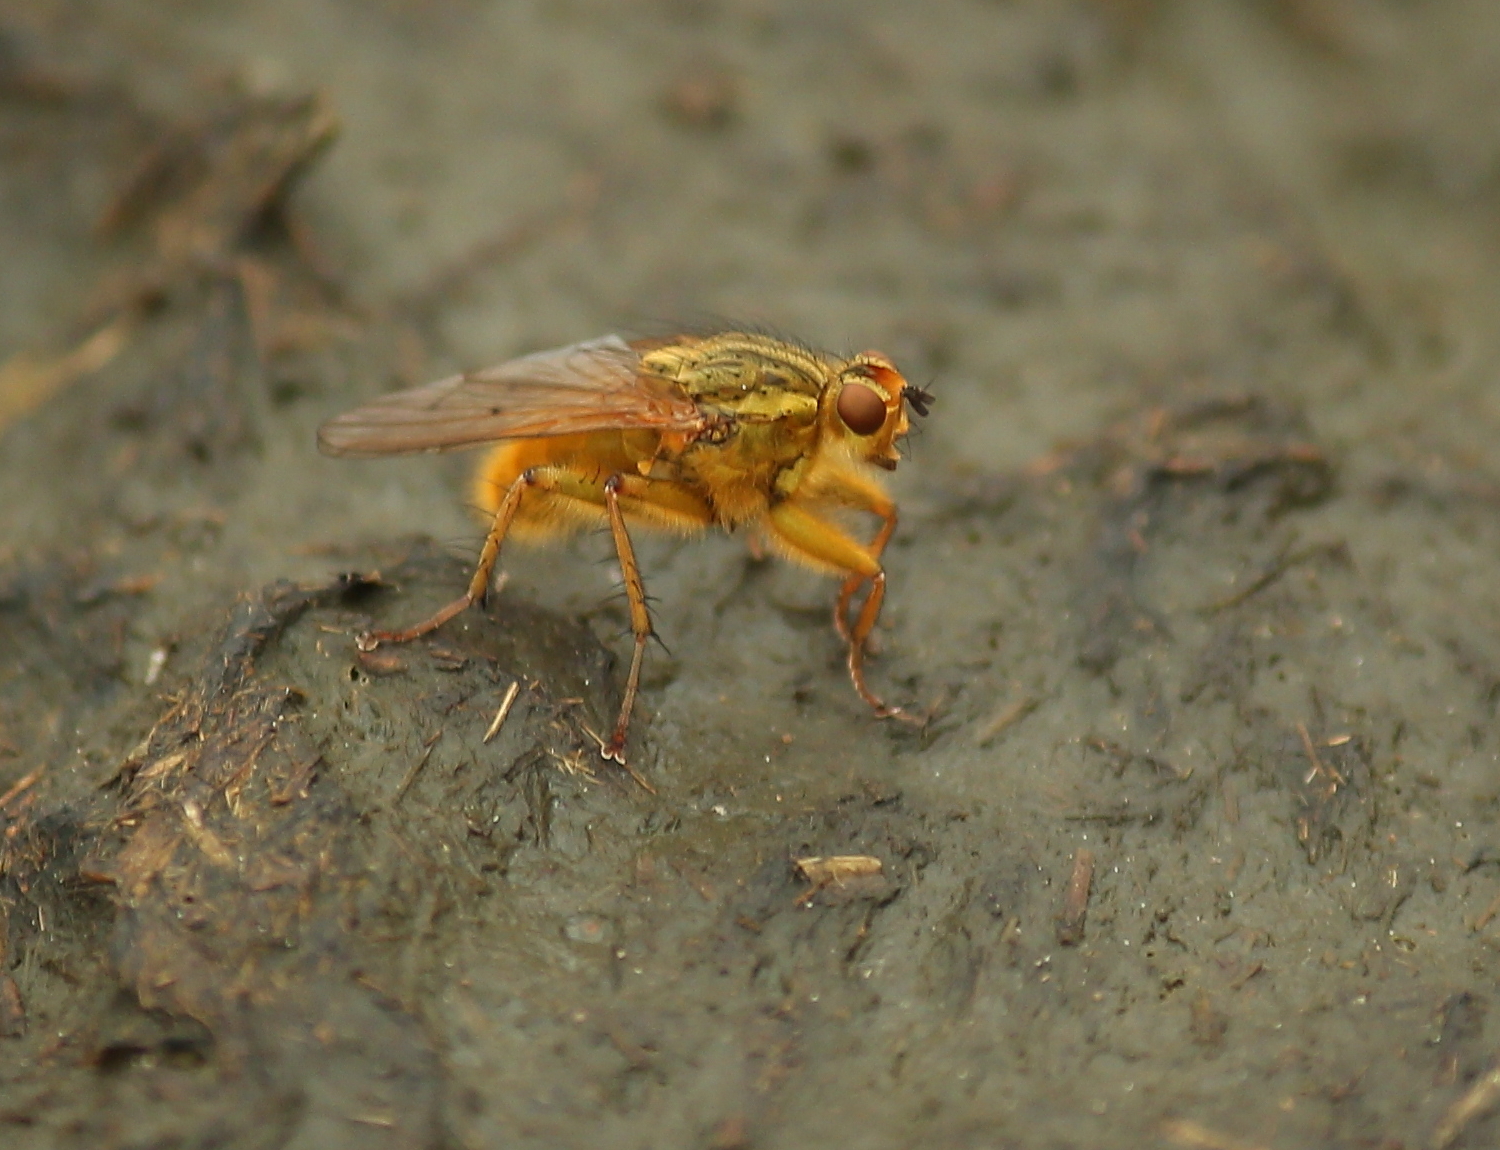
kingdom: Animalia
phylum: Arthropoda
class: Insecta
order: Diptera
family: Scathophagidae
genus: Scathophaga
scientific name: Scathophaga stercoraria
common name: Yellow dung fly
